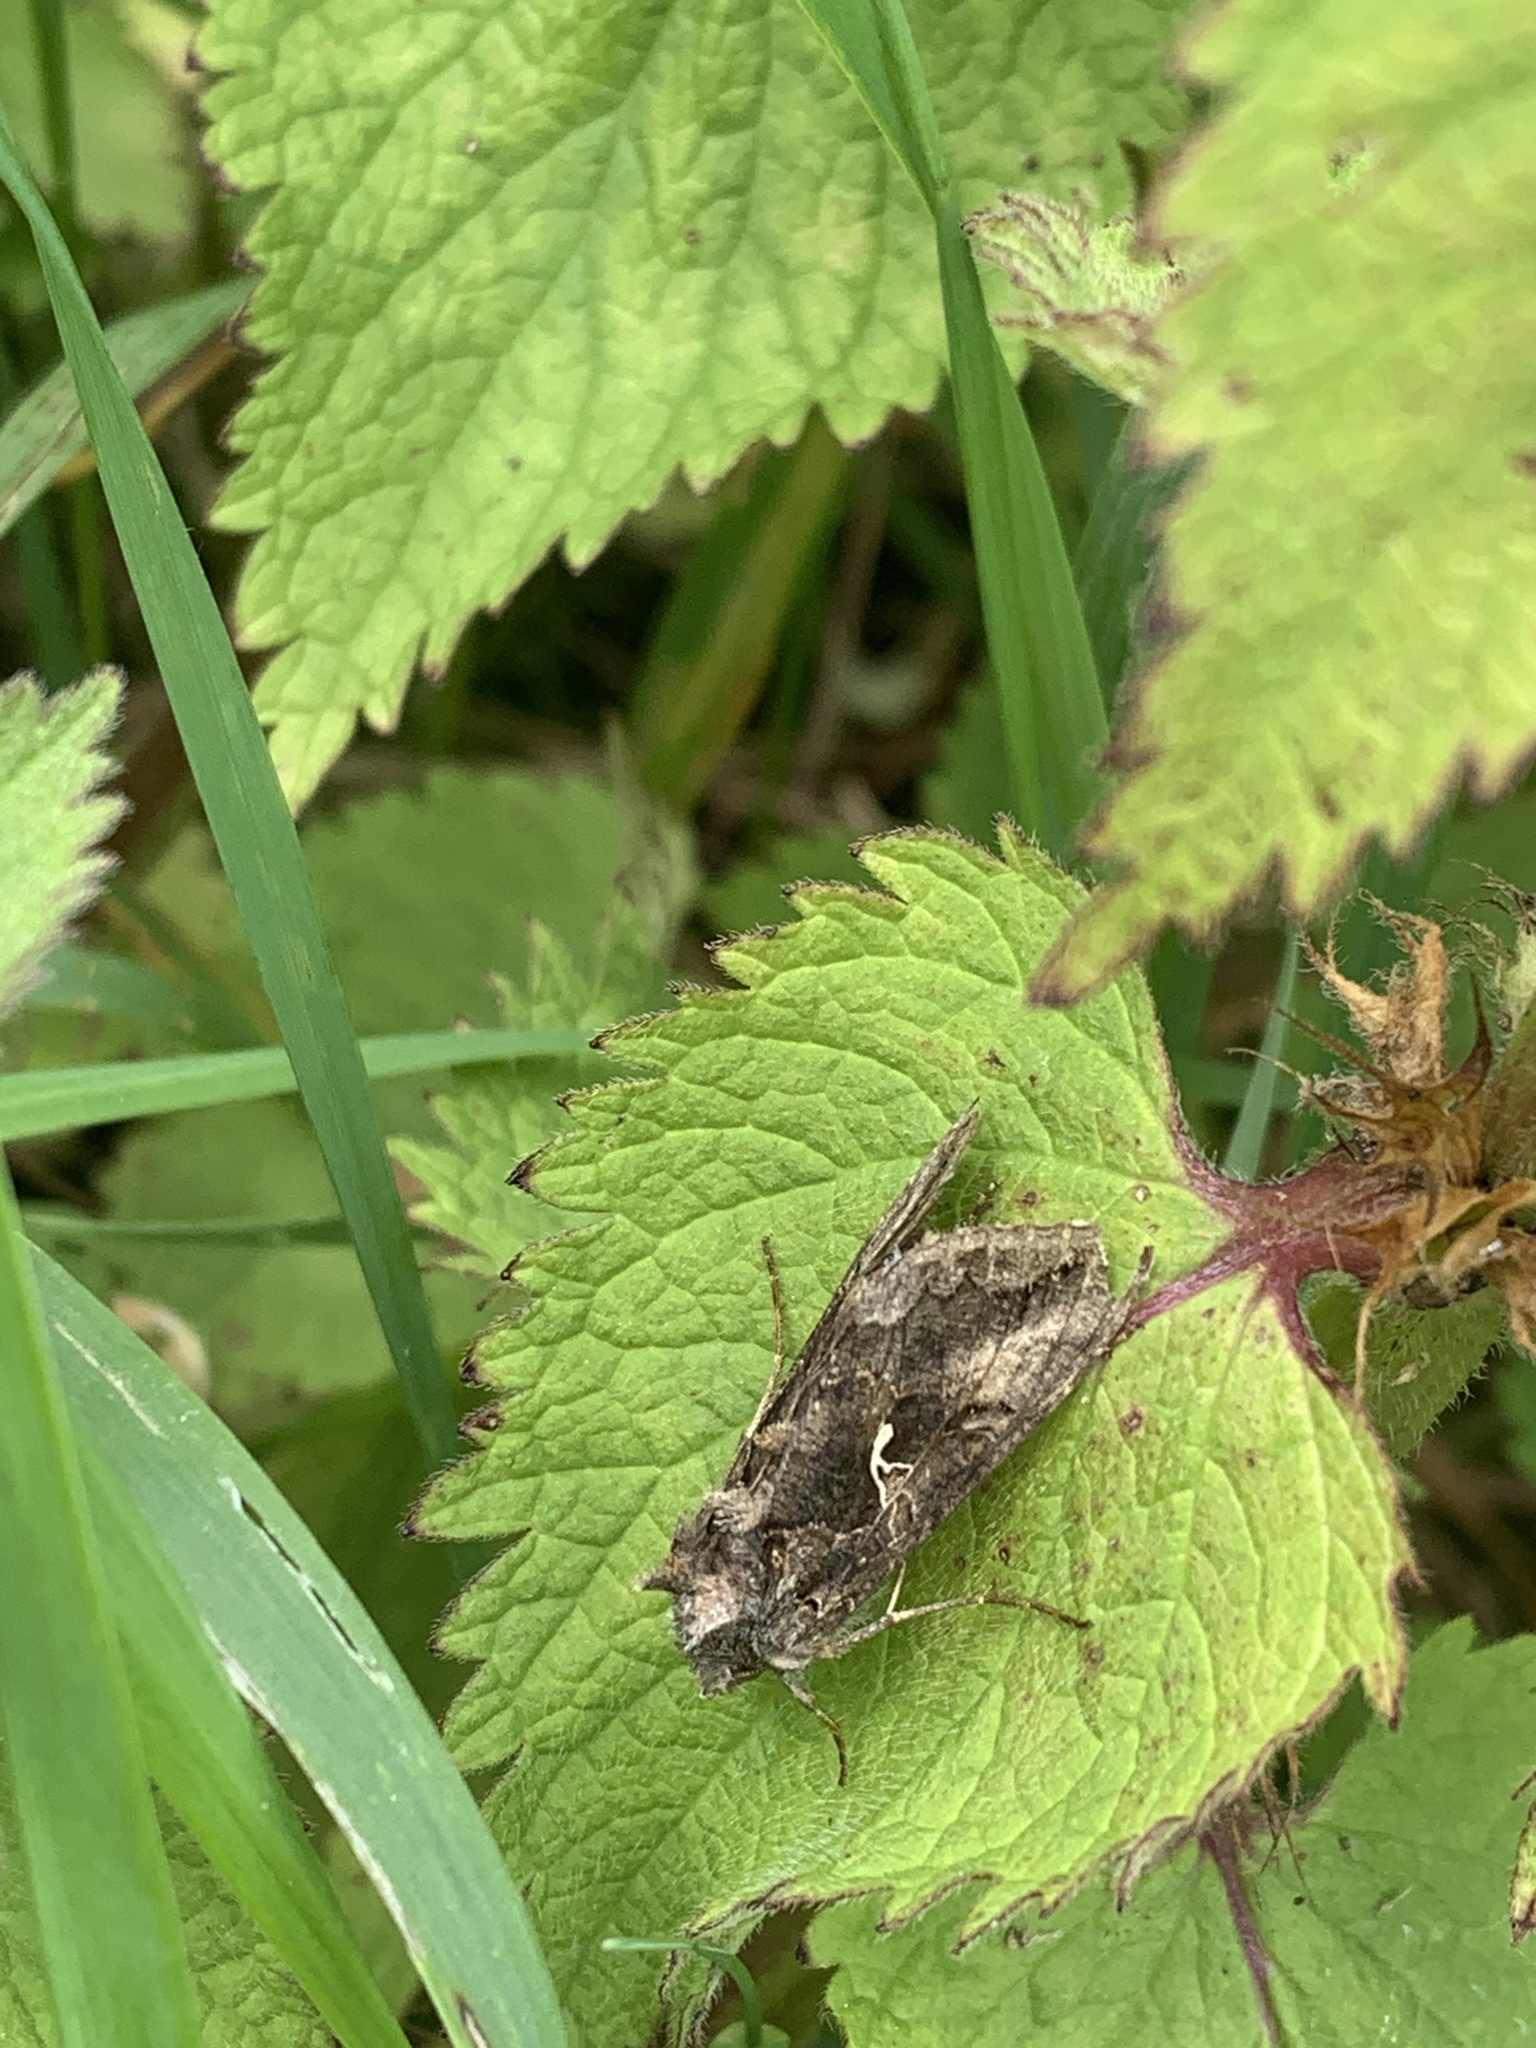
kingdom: Animalia
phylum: Arthropoda
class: Insecta
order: Lepidoptera
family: Noctuidae
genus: Autographa
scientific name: Autographa gamma
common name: Silver y
